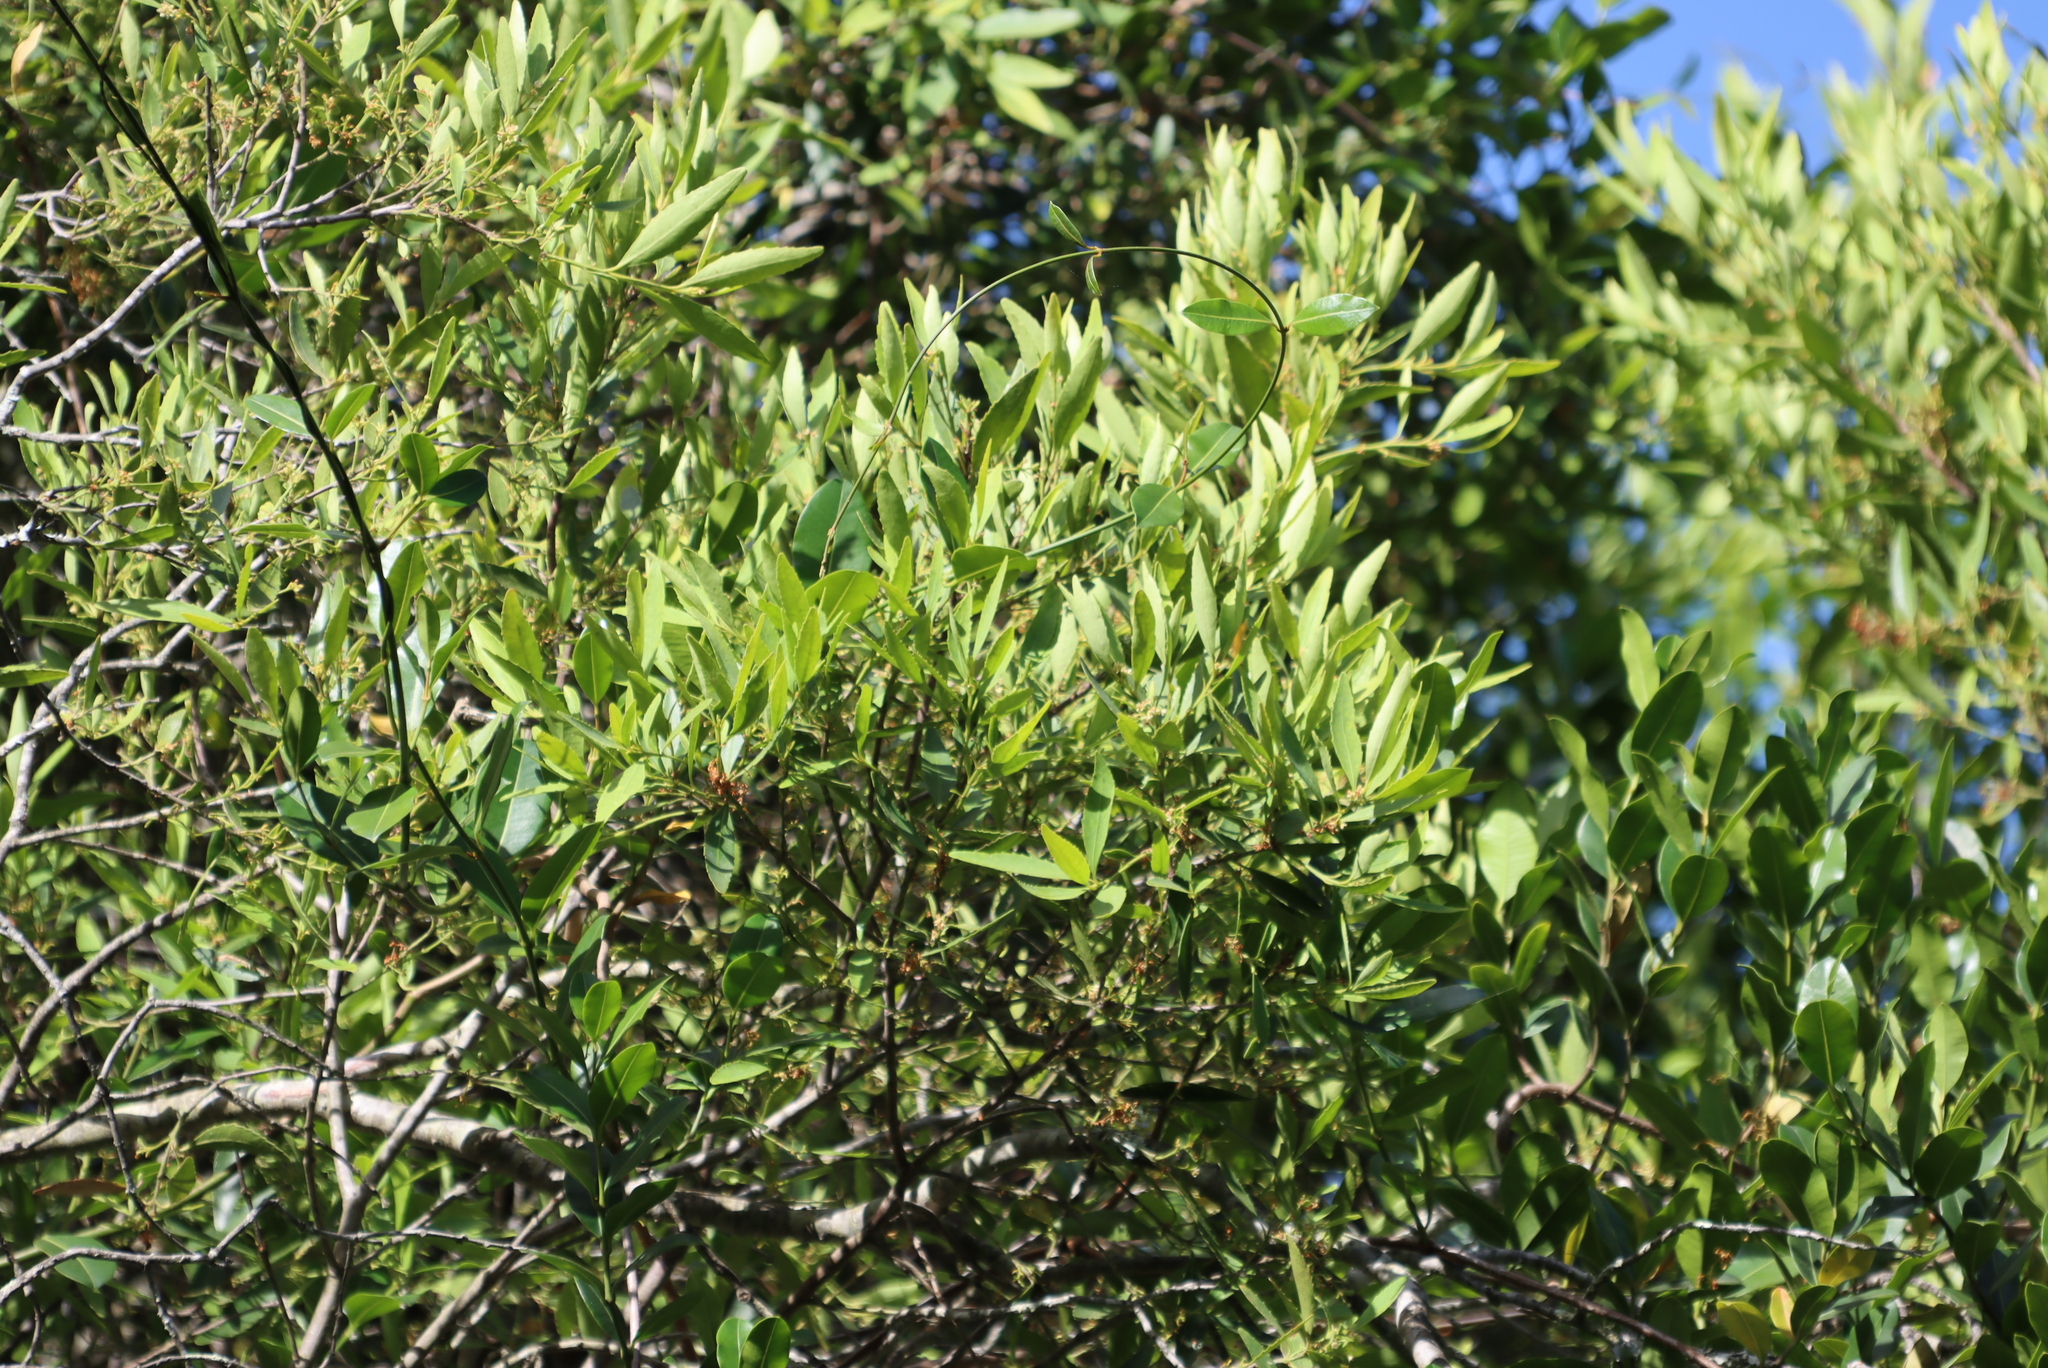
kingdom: Plantae
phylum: Tracheophyta
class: Magnoliopsida
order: Celastrales
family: Celastraceae
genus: Elaeodendron
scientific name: Elaeodendron schinoides
